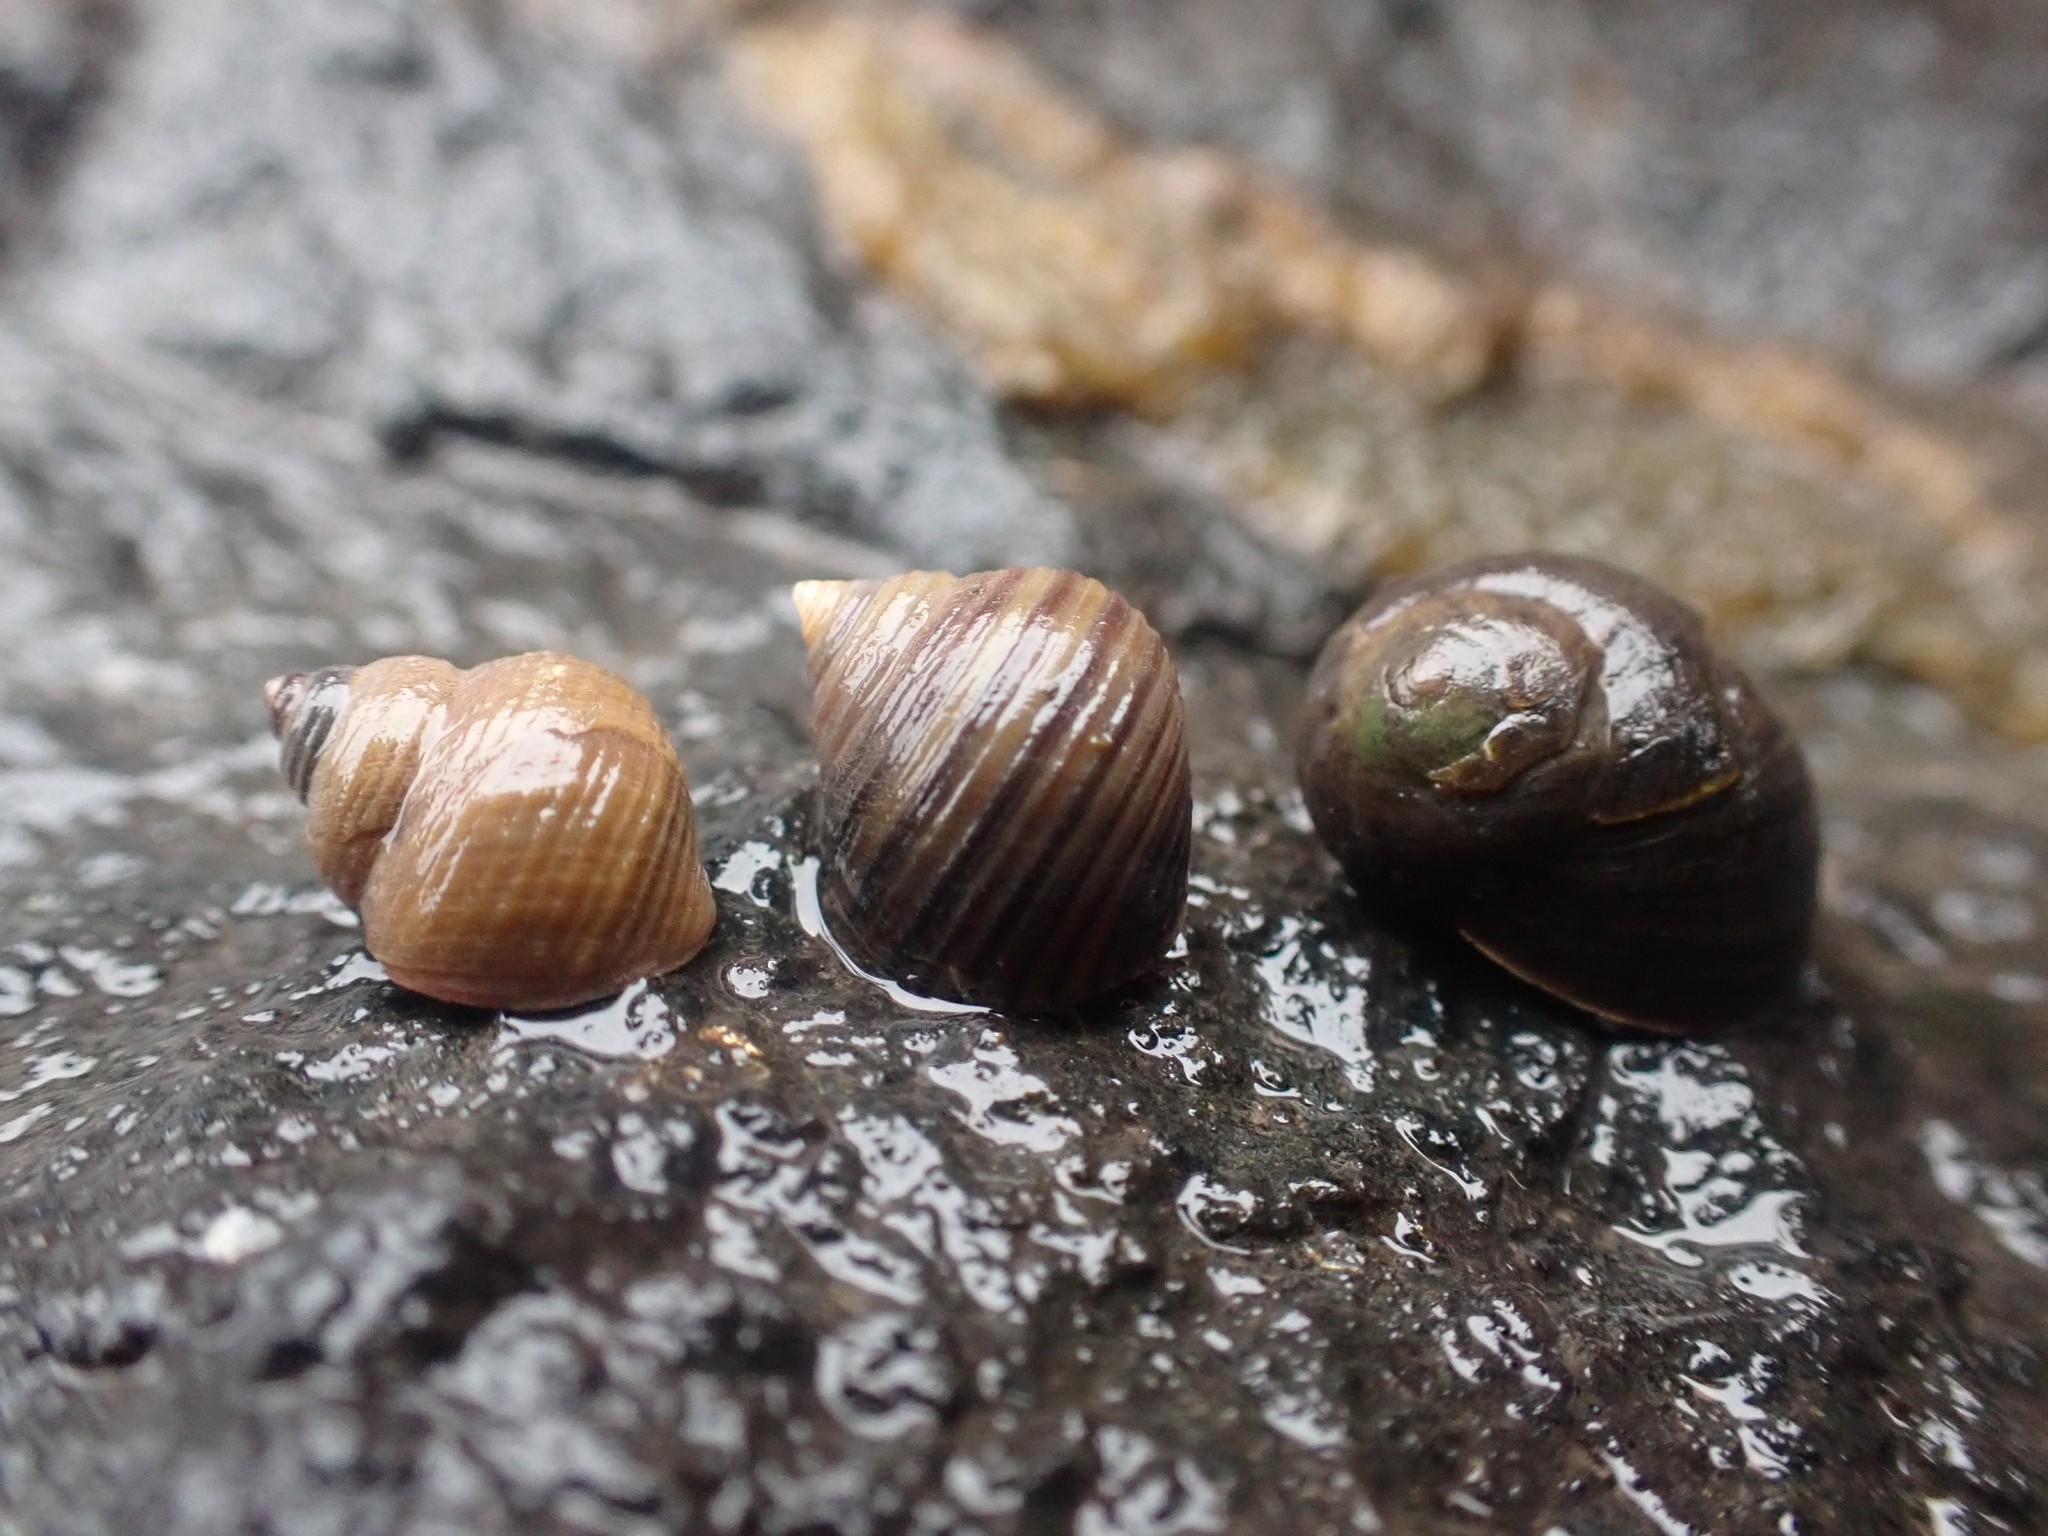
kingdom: Animalia
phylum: Mollusca
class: Gastropoda
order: Littorinimorpha
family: Littorinidae
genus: Littorina
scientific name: Littorina littorea
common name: Common periwinkle
